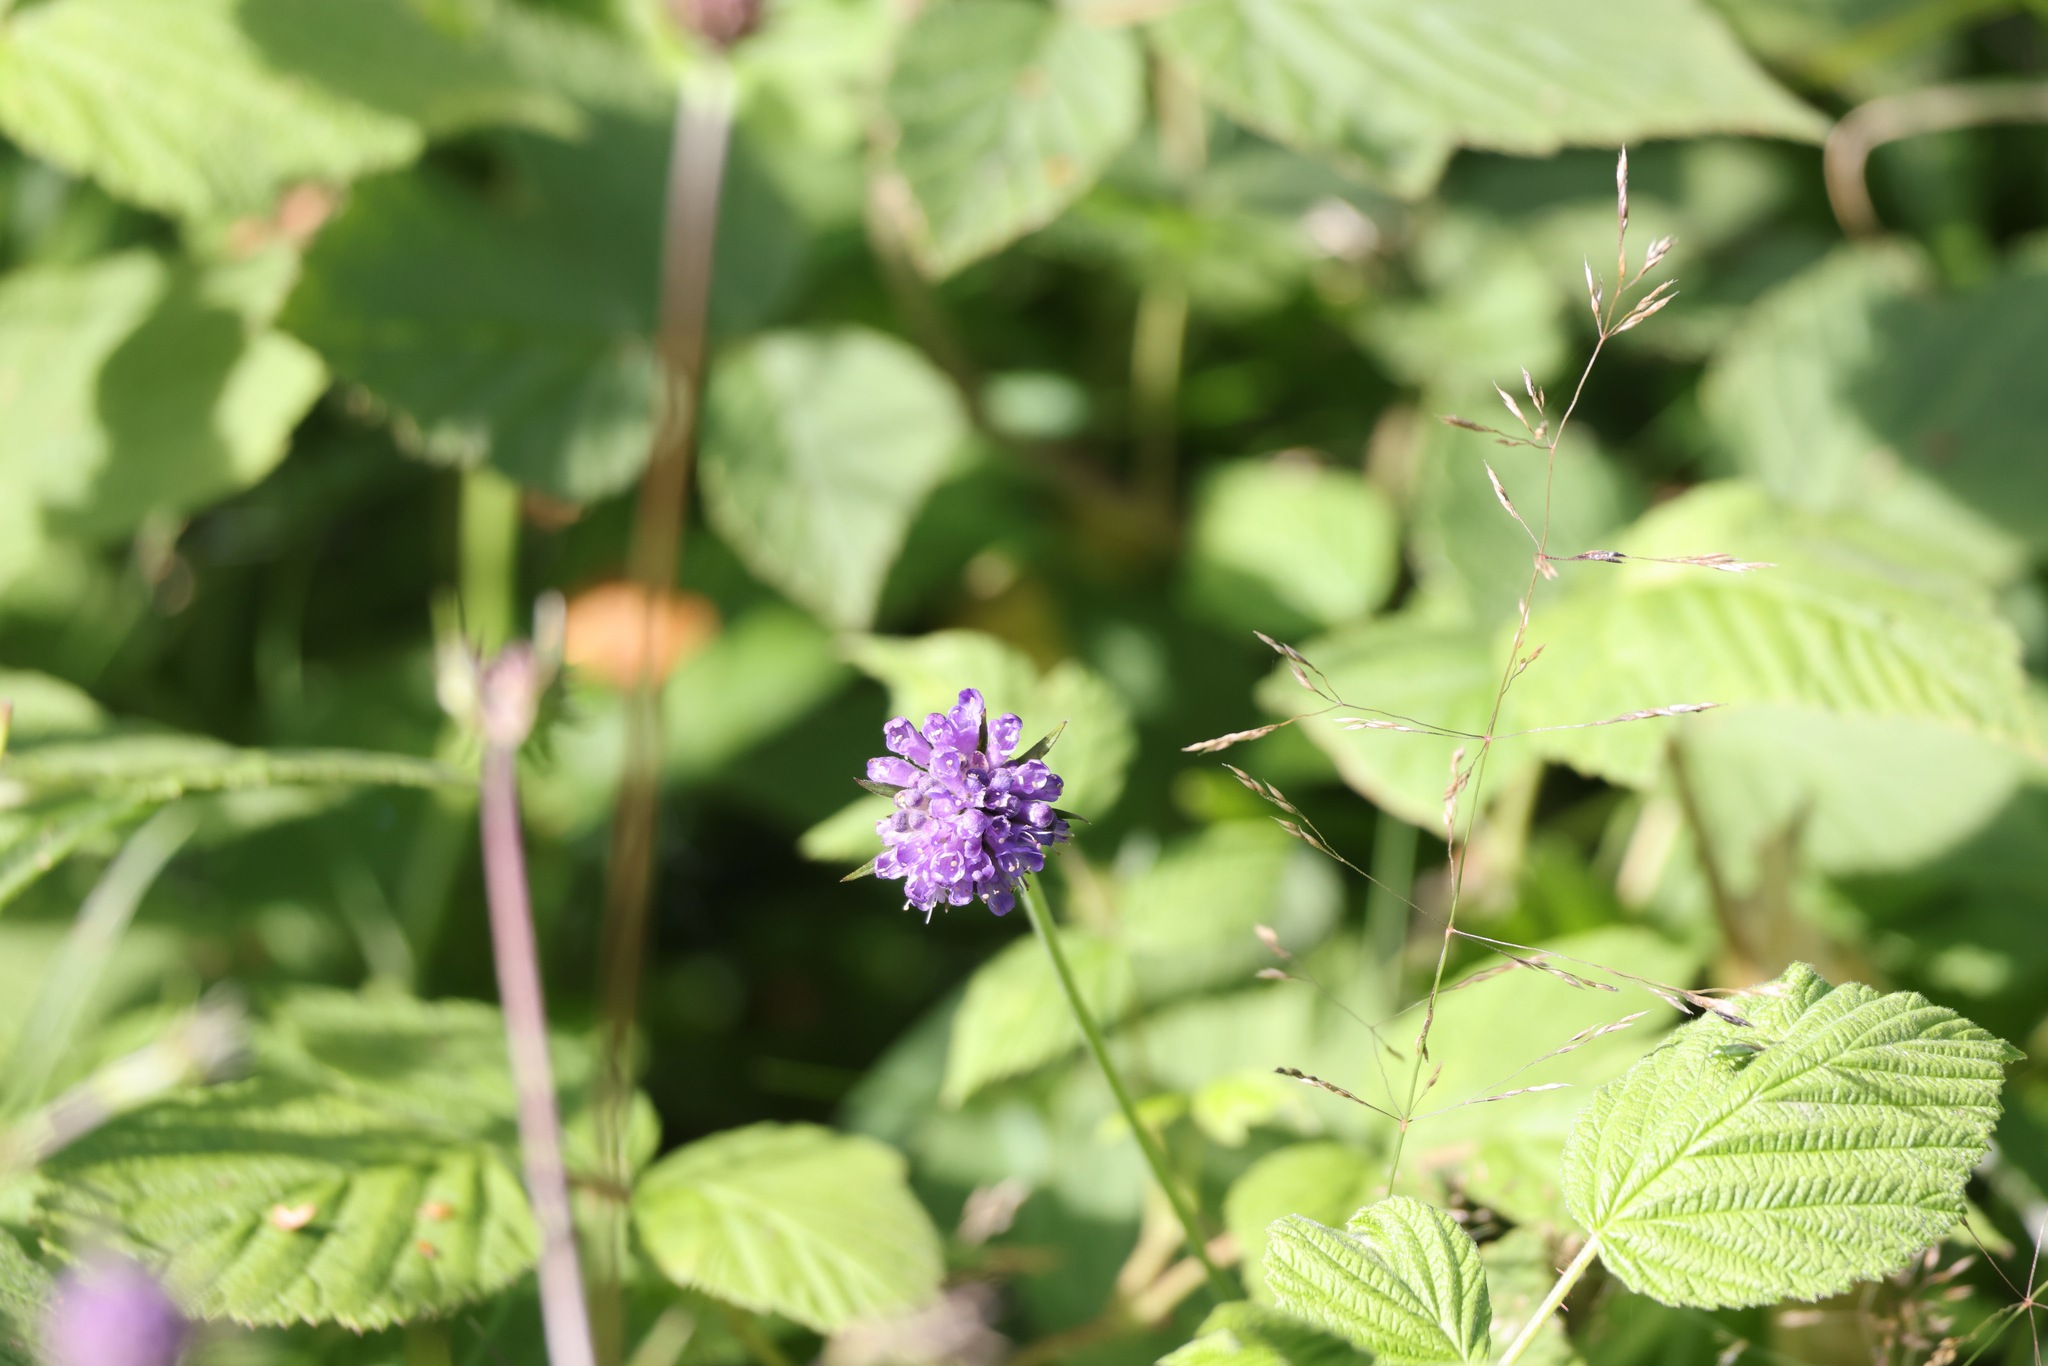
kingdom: Plantae
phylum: Tracheophyta
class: Magnoliopsida
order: Dipsacales
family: Caprifoliaceae
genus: Succisa
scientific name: Succisa pratensis
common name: Devil's-bit
